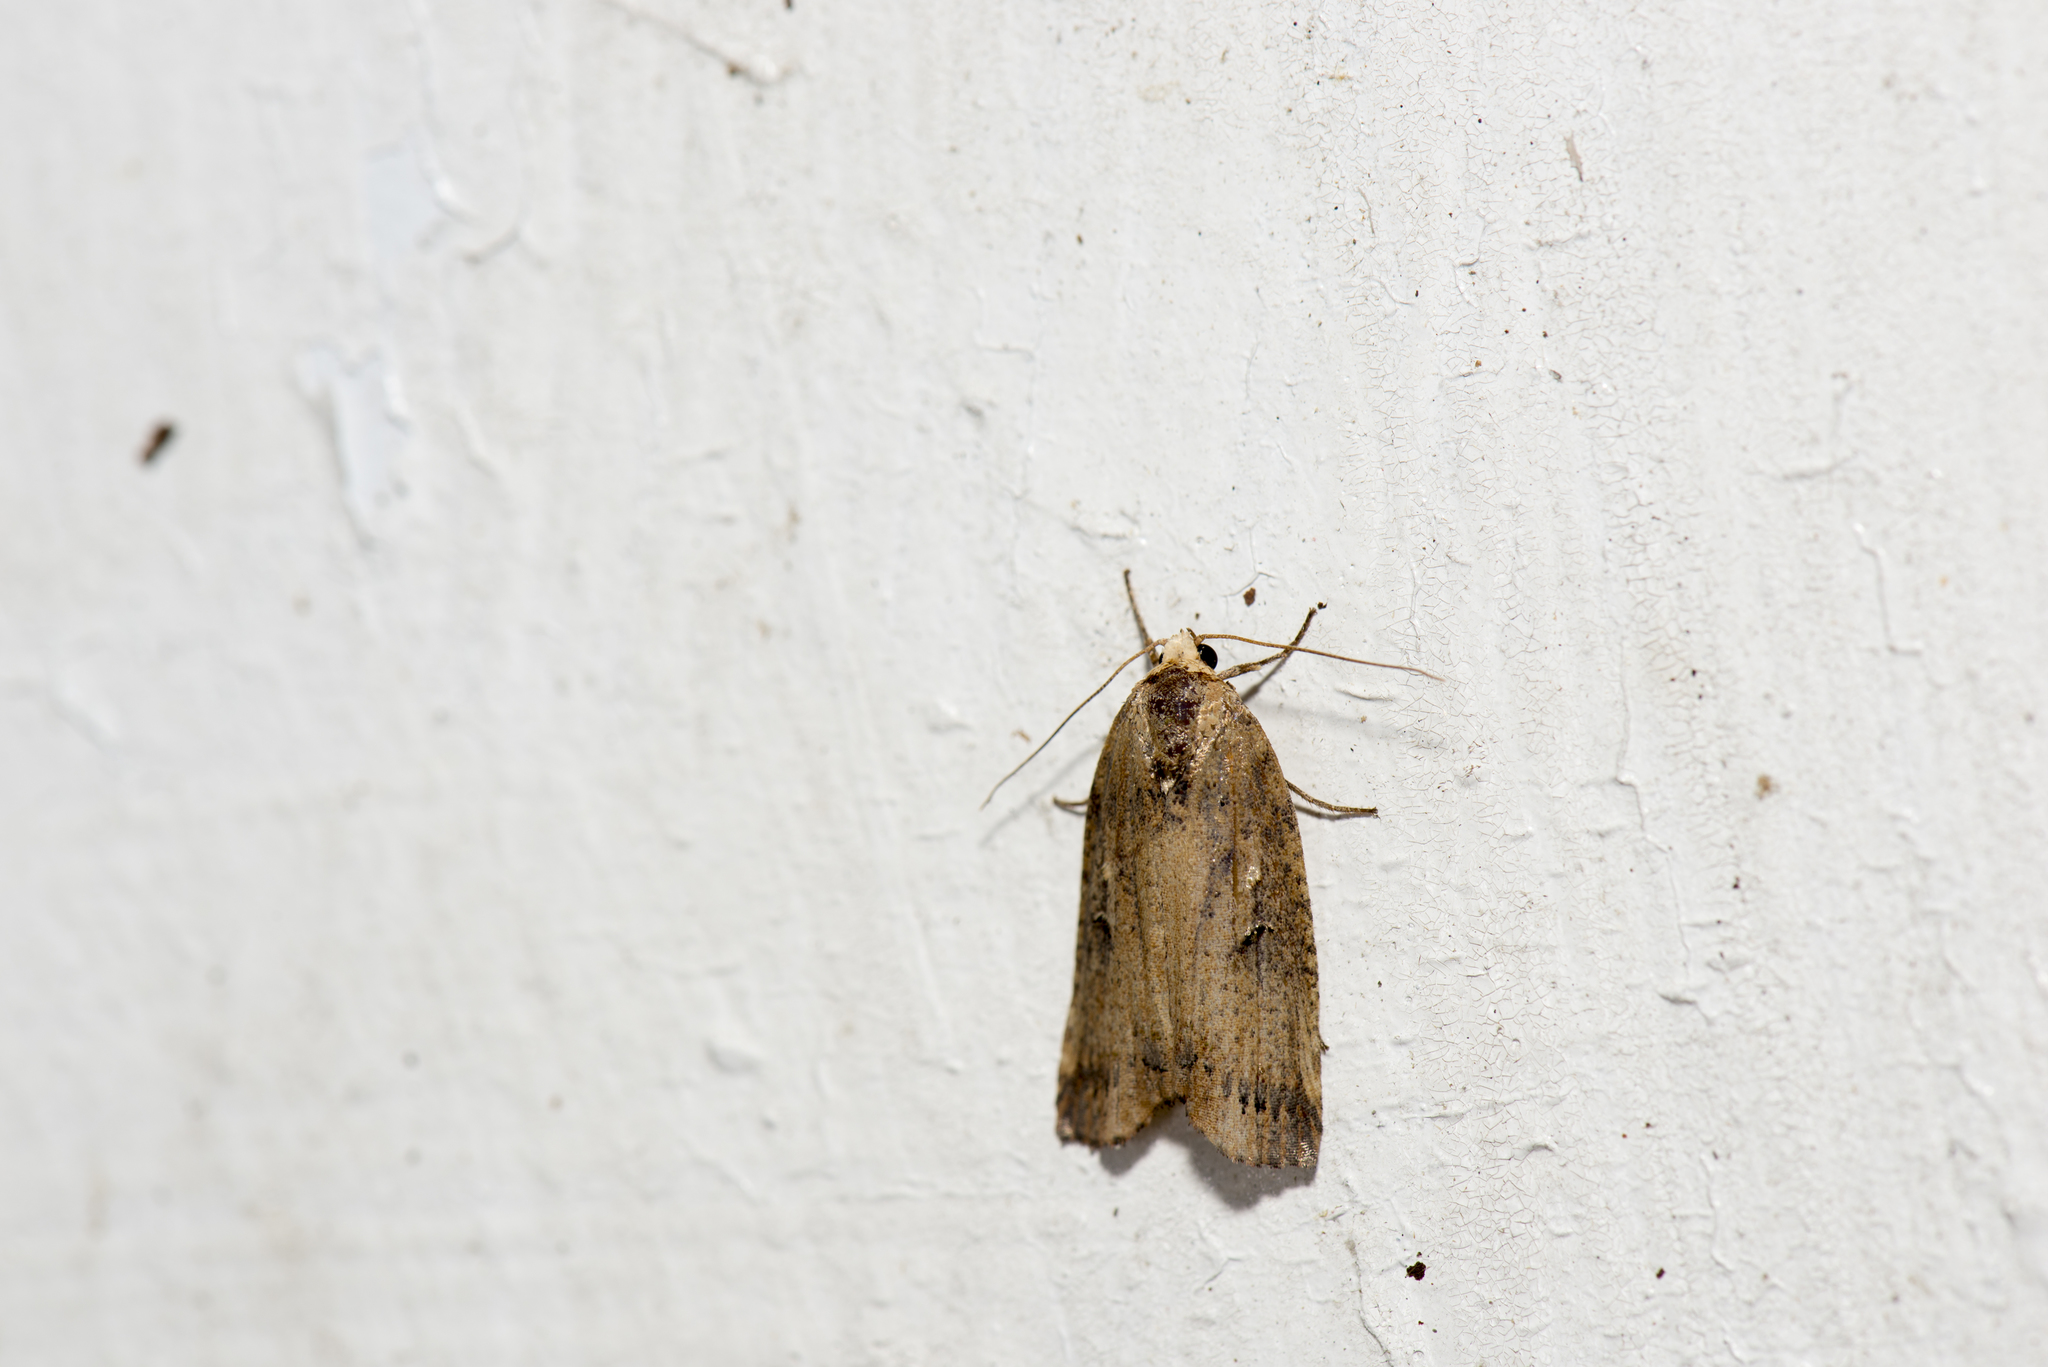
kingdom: Animalia
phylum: Arthropoda
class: Insecta
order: Lepidoptera
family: Nolidae
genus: Kerala
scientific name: Kerala lentiginosa
